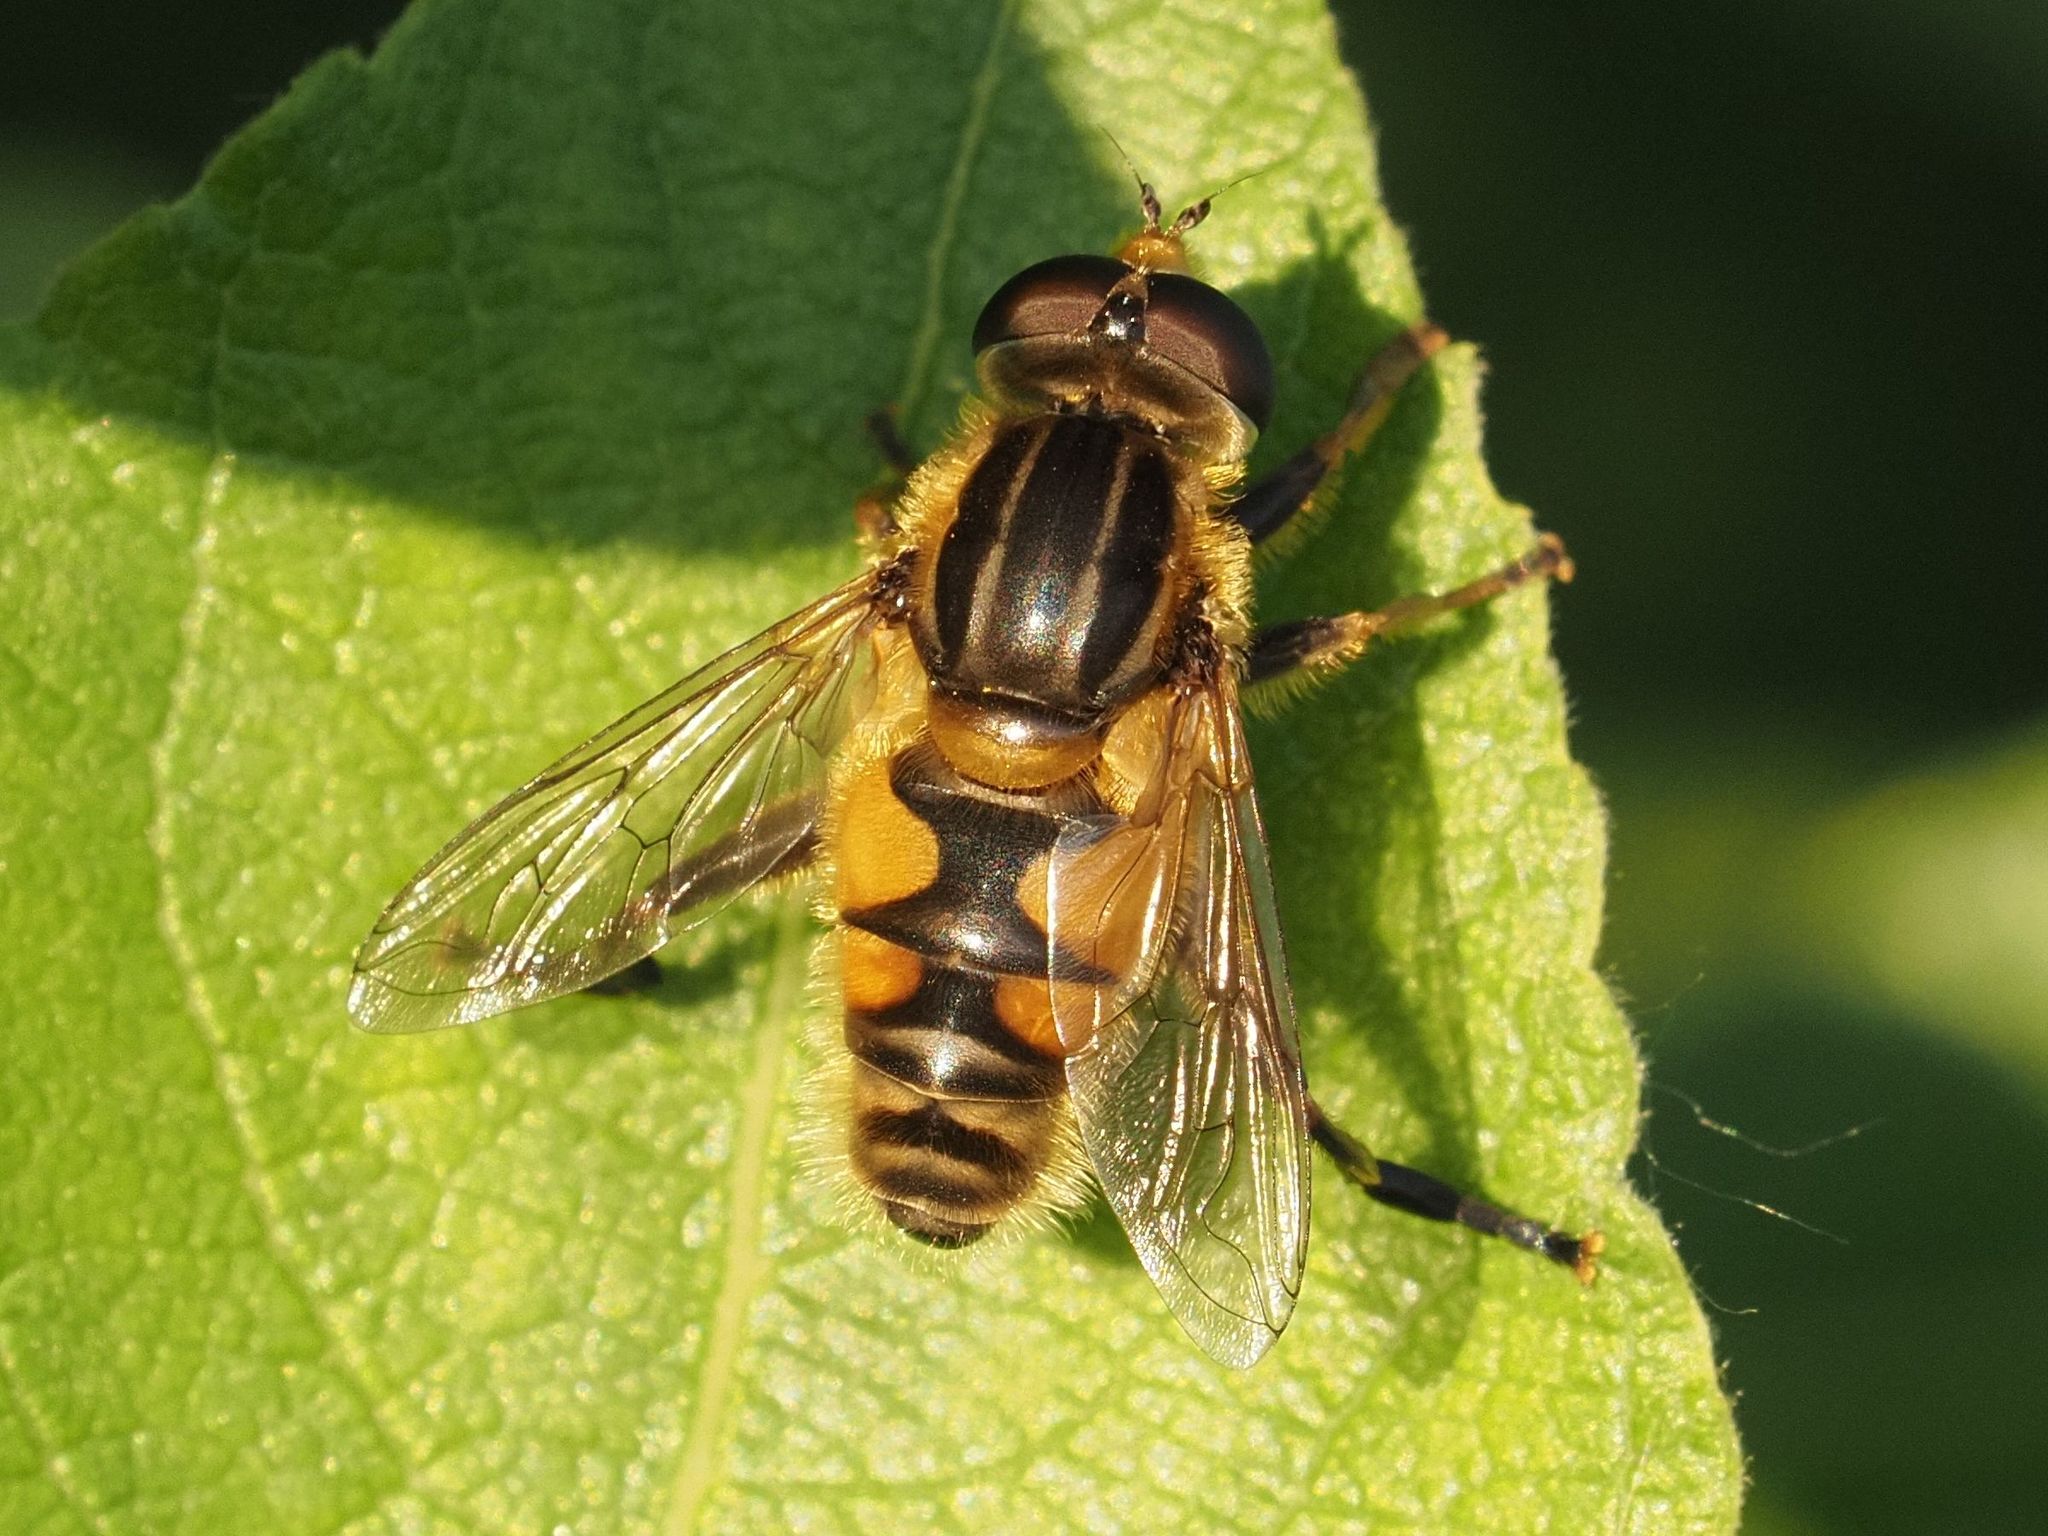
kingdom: Animalia
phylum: Arthropoda
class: Insecta
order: Diptera
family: Syrphidae
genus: Mesembrius
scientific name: Mesembrius peregrinus
